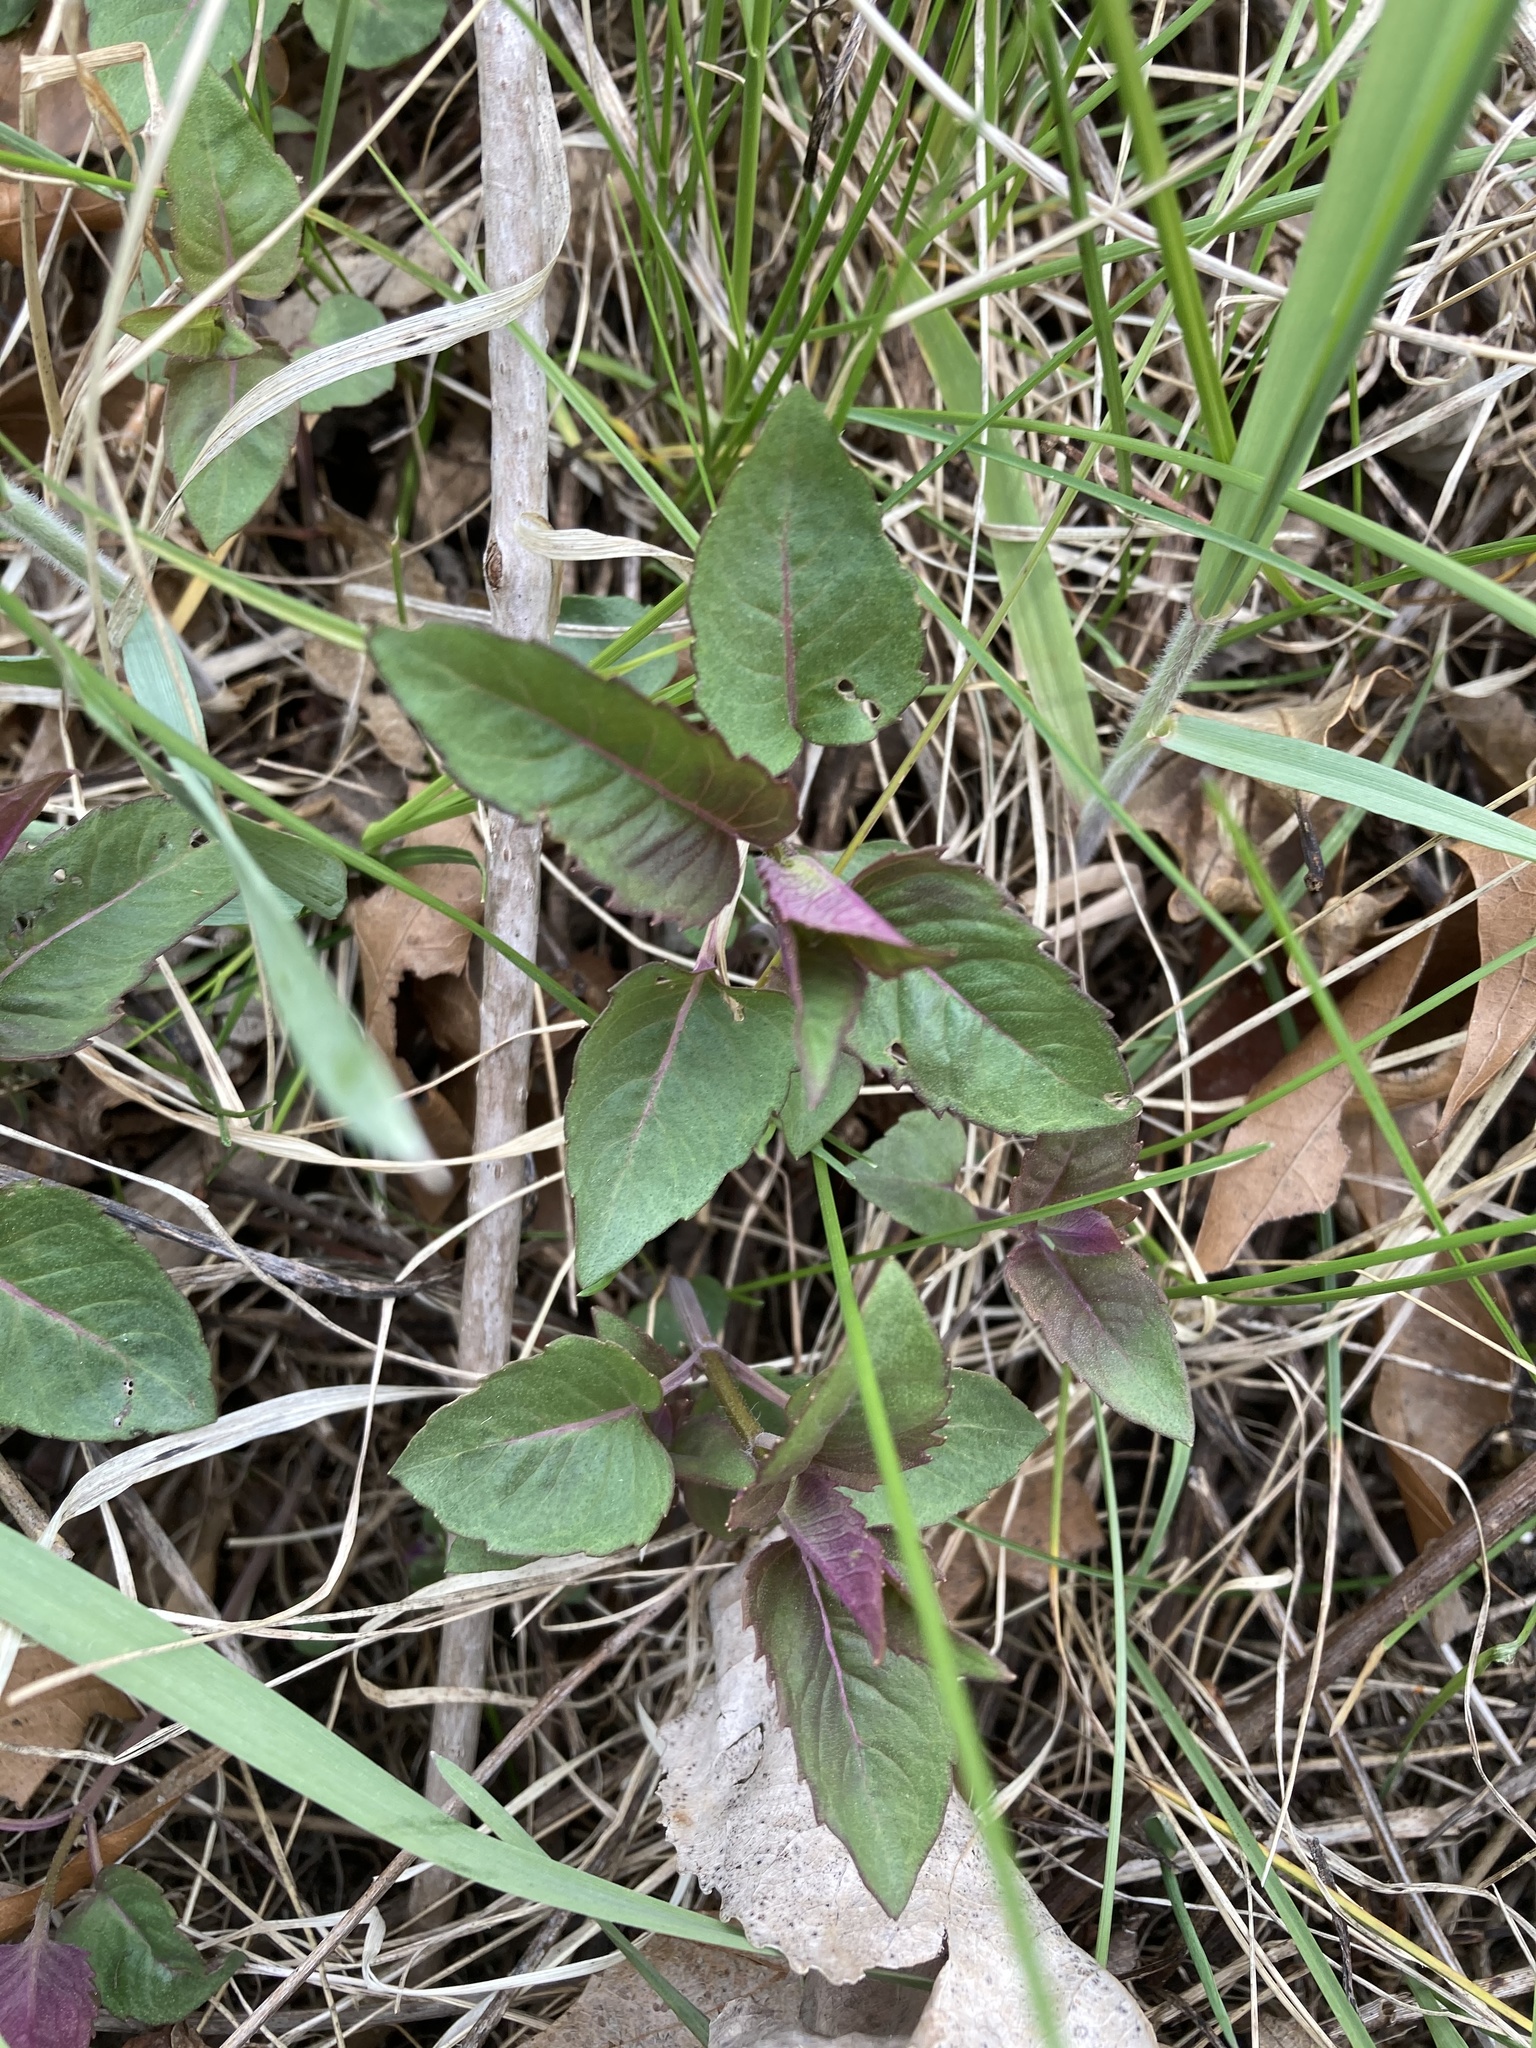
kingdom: Plantae
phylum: Tracheophyta
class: Magnoliopsida
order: Lamiales
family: Lamiaceae
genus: Monarda
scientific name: Monarda fistulosa
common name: Purple beebalm
